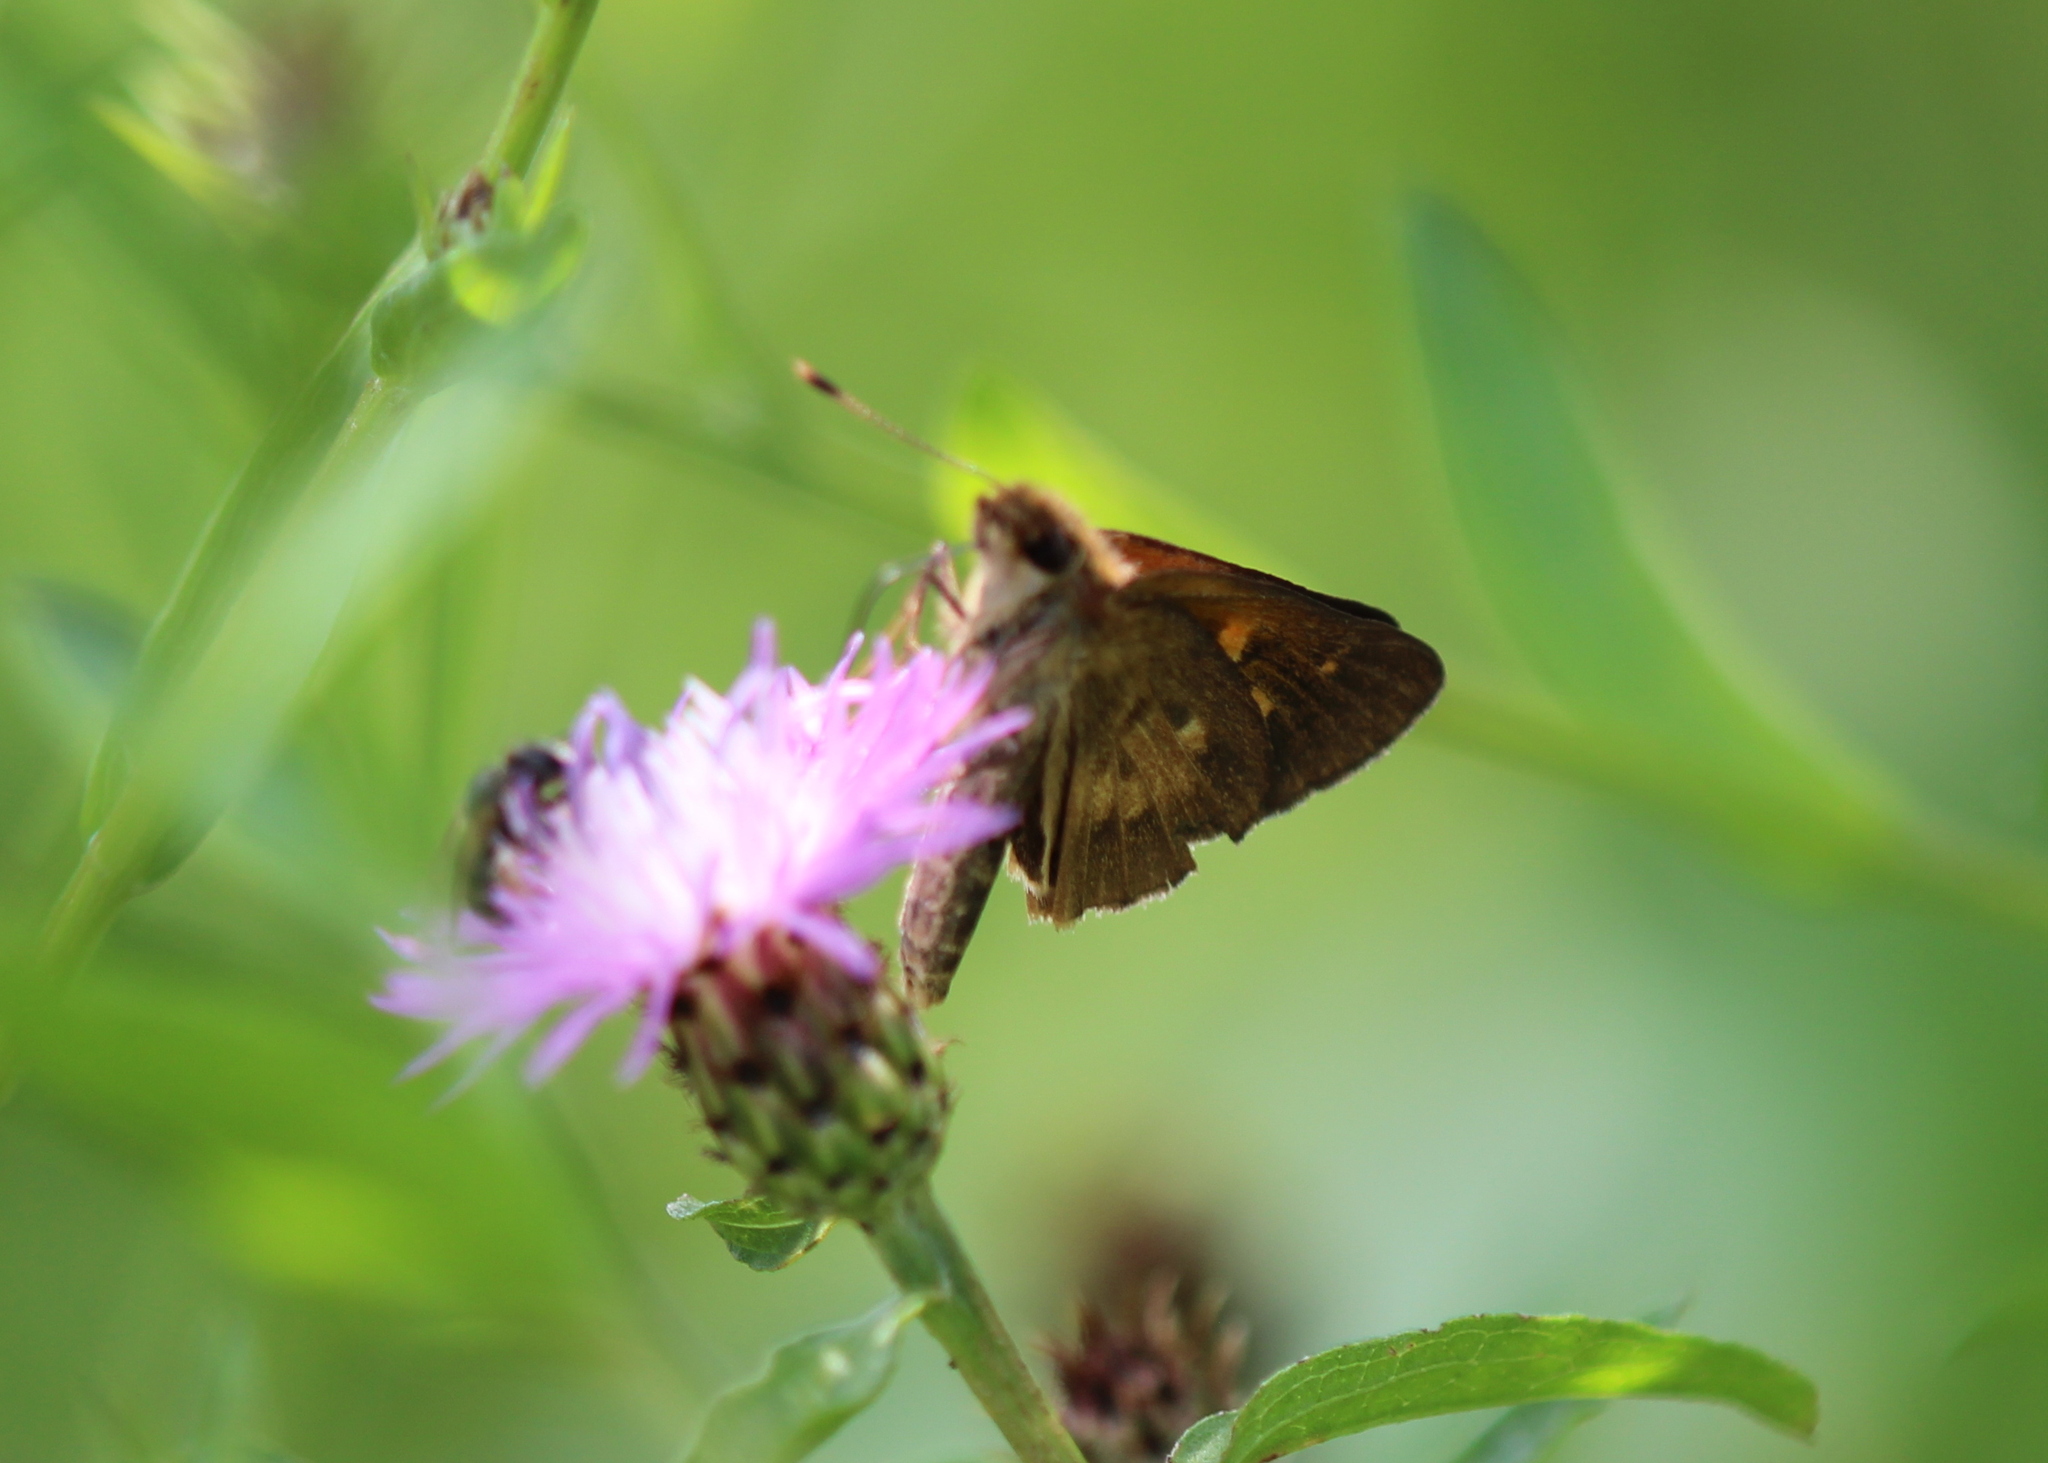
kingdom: Animalia
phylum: Arthropoda
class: Insecta
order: Lepidoptera
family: Hesperiidae
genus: Poanes
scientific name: Poanes viator
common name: Broad-winged skipper
